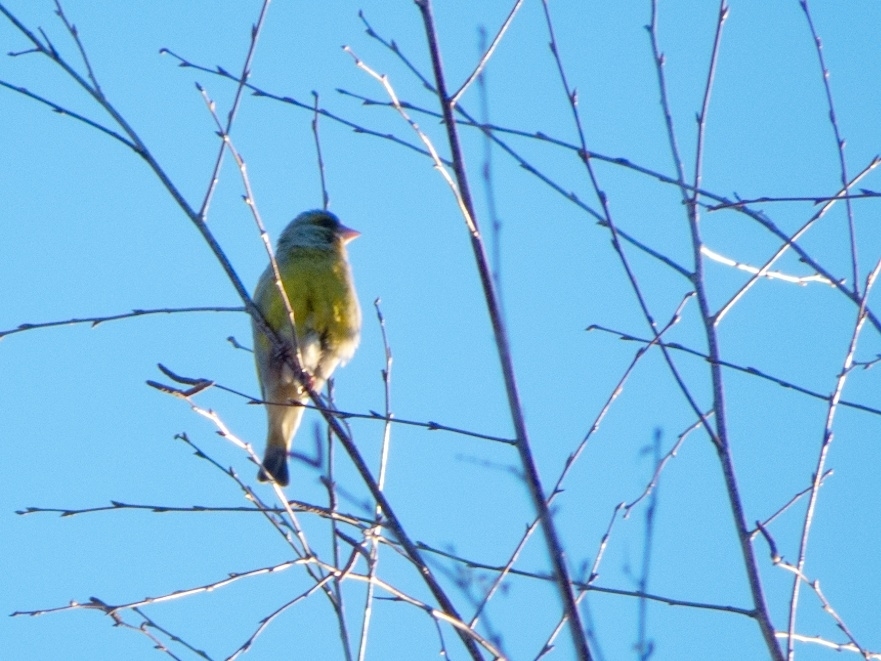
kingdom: Plantae
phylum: Tracheophyta
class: Liliopsida
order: Poales
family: Poaceae
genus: Chloris
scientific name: Chloris chloris
